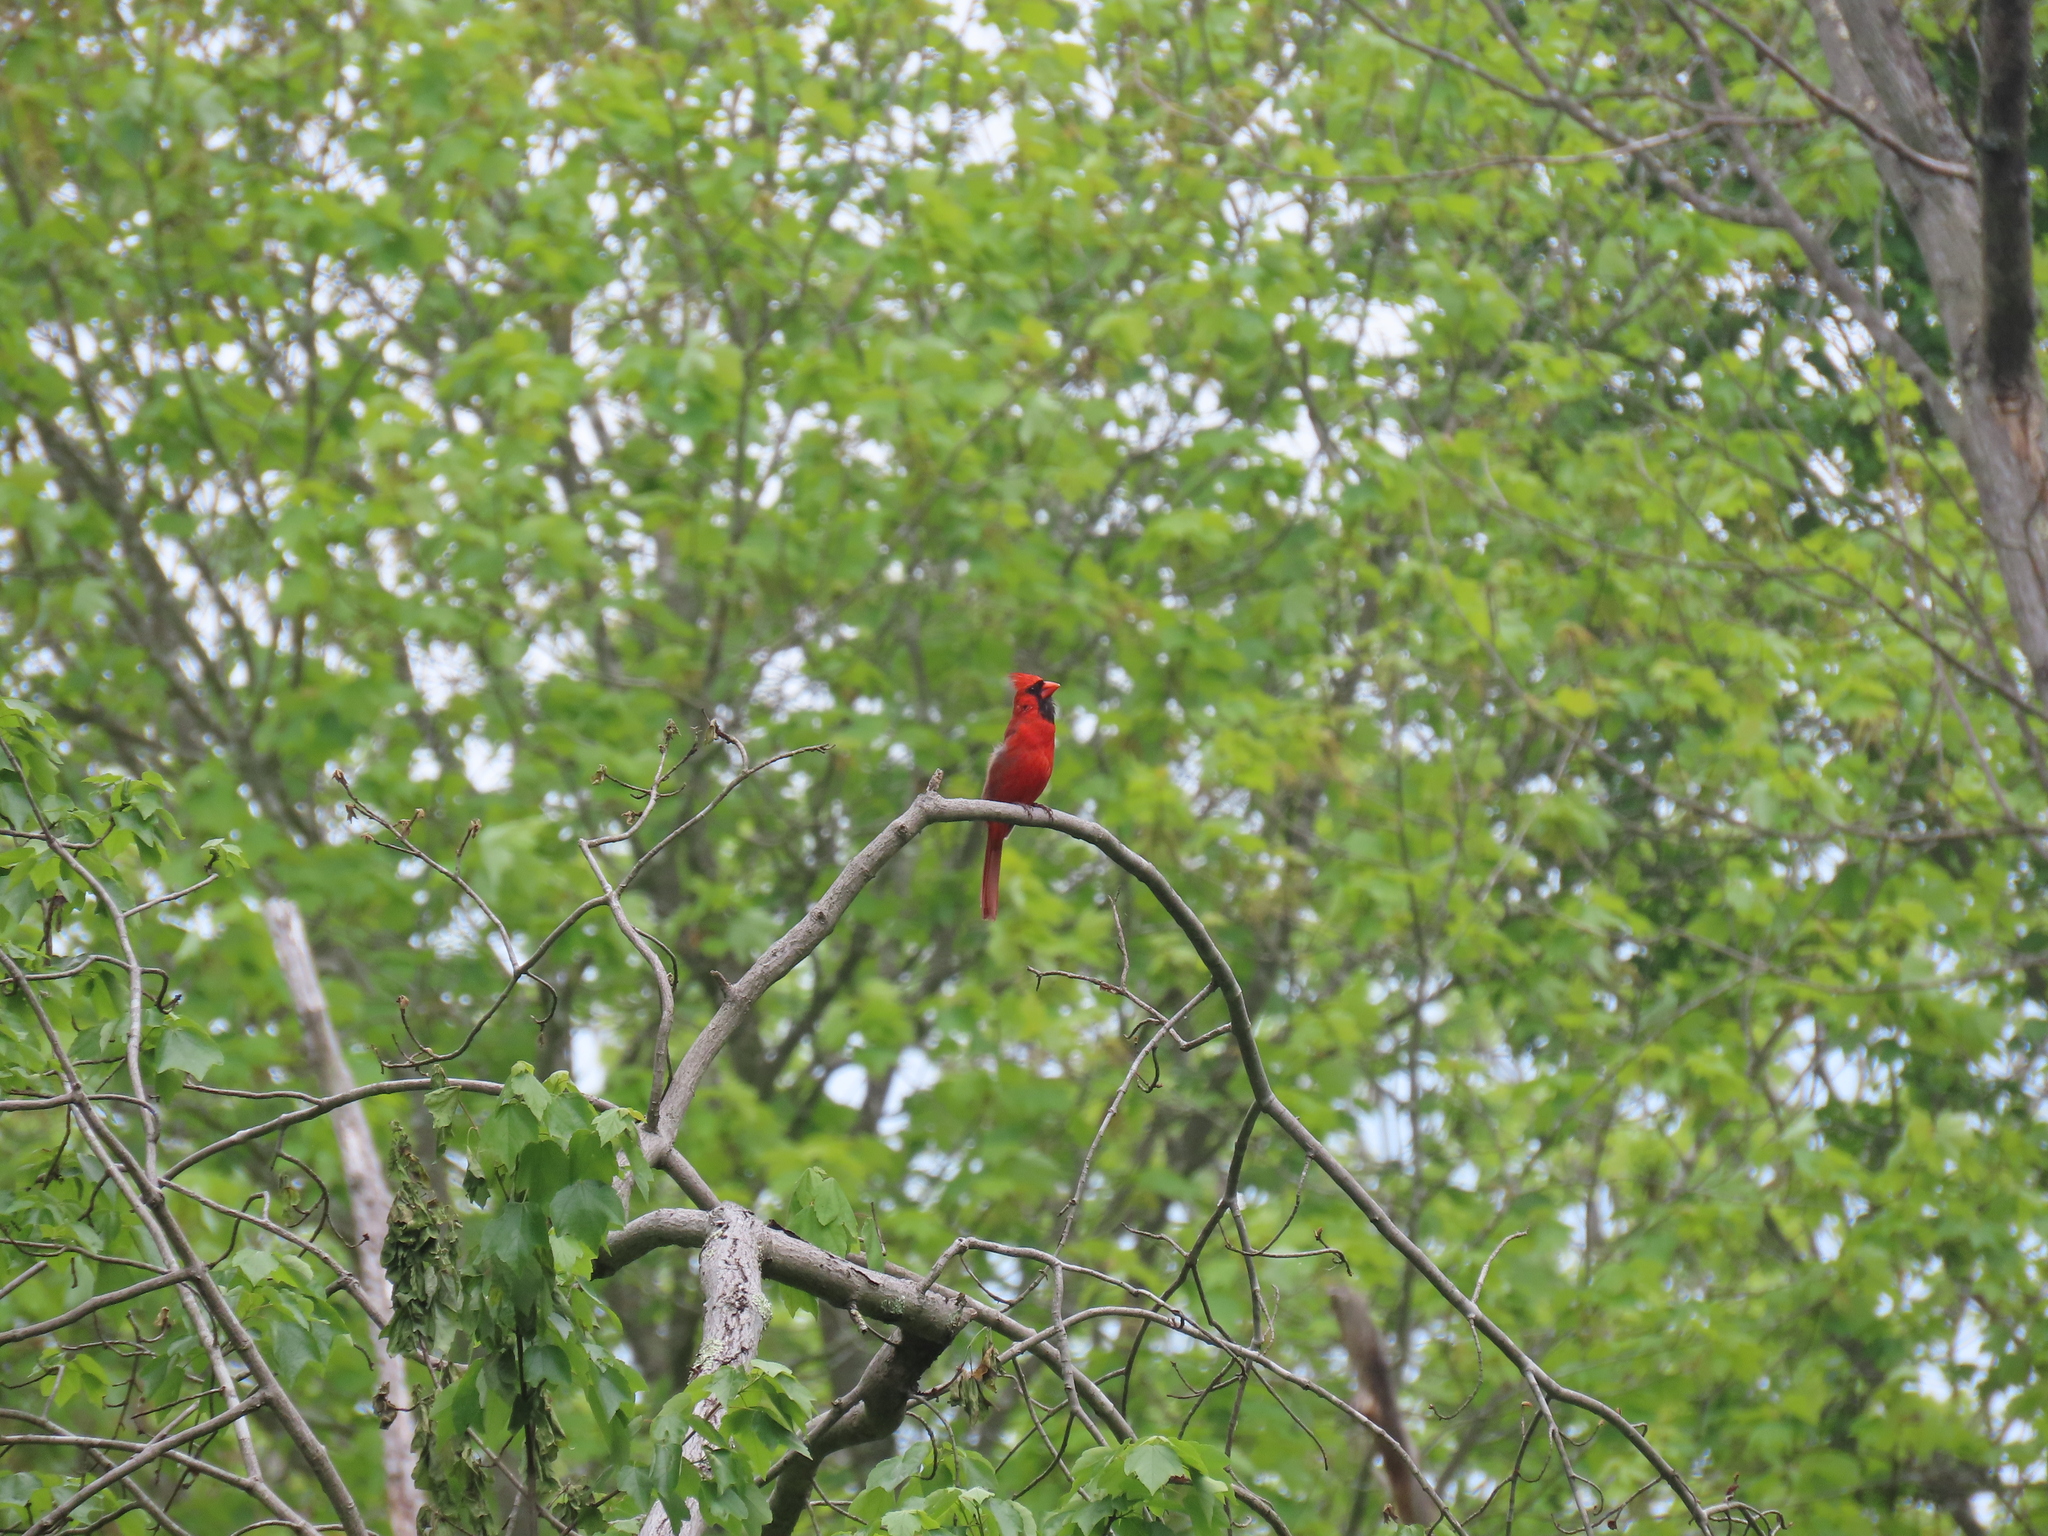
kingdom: Animalia
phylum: Chordata
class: Aves
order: Passeriformes
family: Cardinalidae
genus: Cardinalis
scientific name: Cardinalis cardinalis
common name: Northern cardinal
